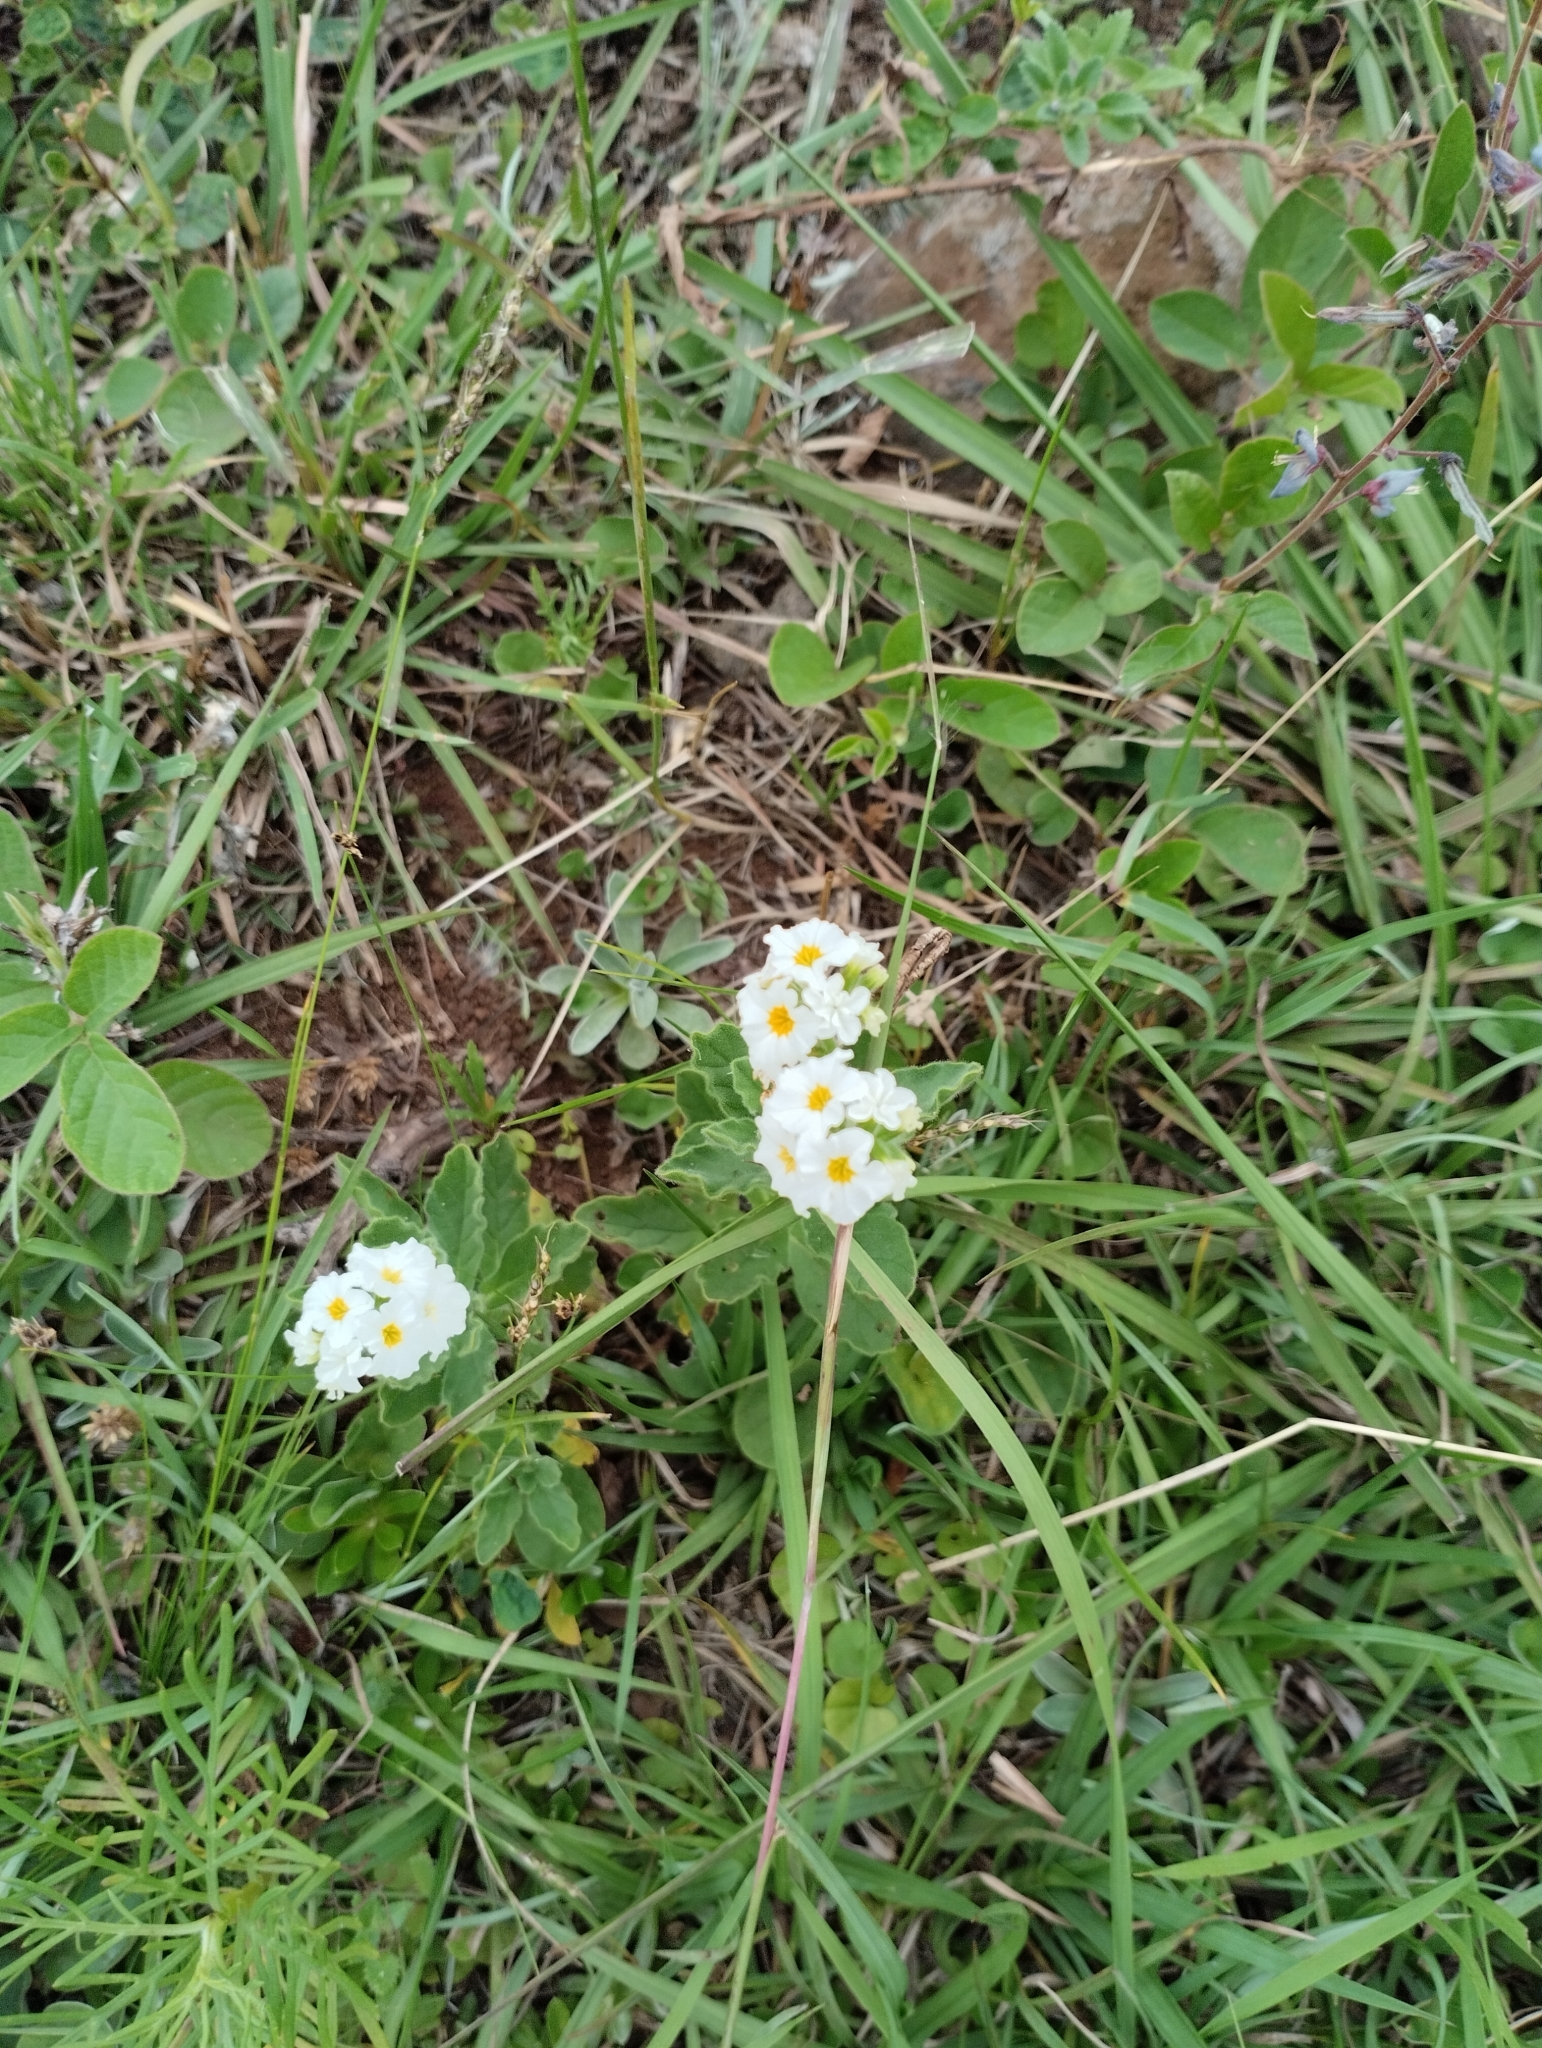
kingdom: Plantae
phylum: Tracheophyta
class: Magnoliopsida
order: Boraginales
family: Heliotropiaceae
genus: Heliotropium
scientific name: Heliotropium amplexicaule
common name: Clasping heliotrope
